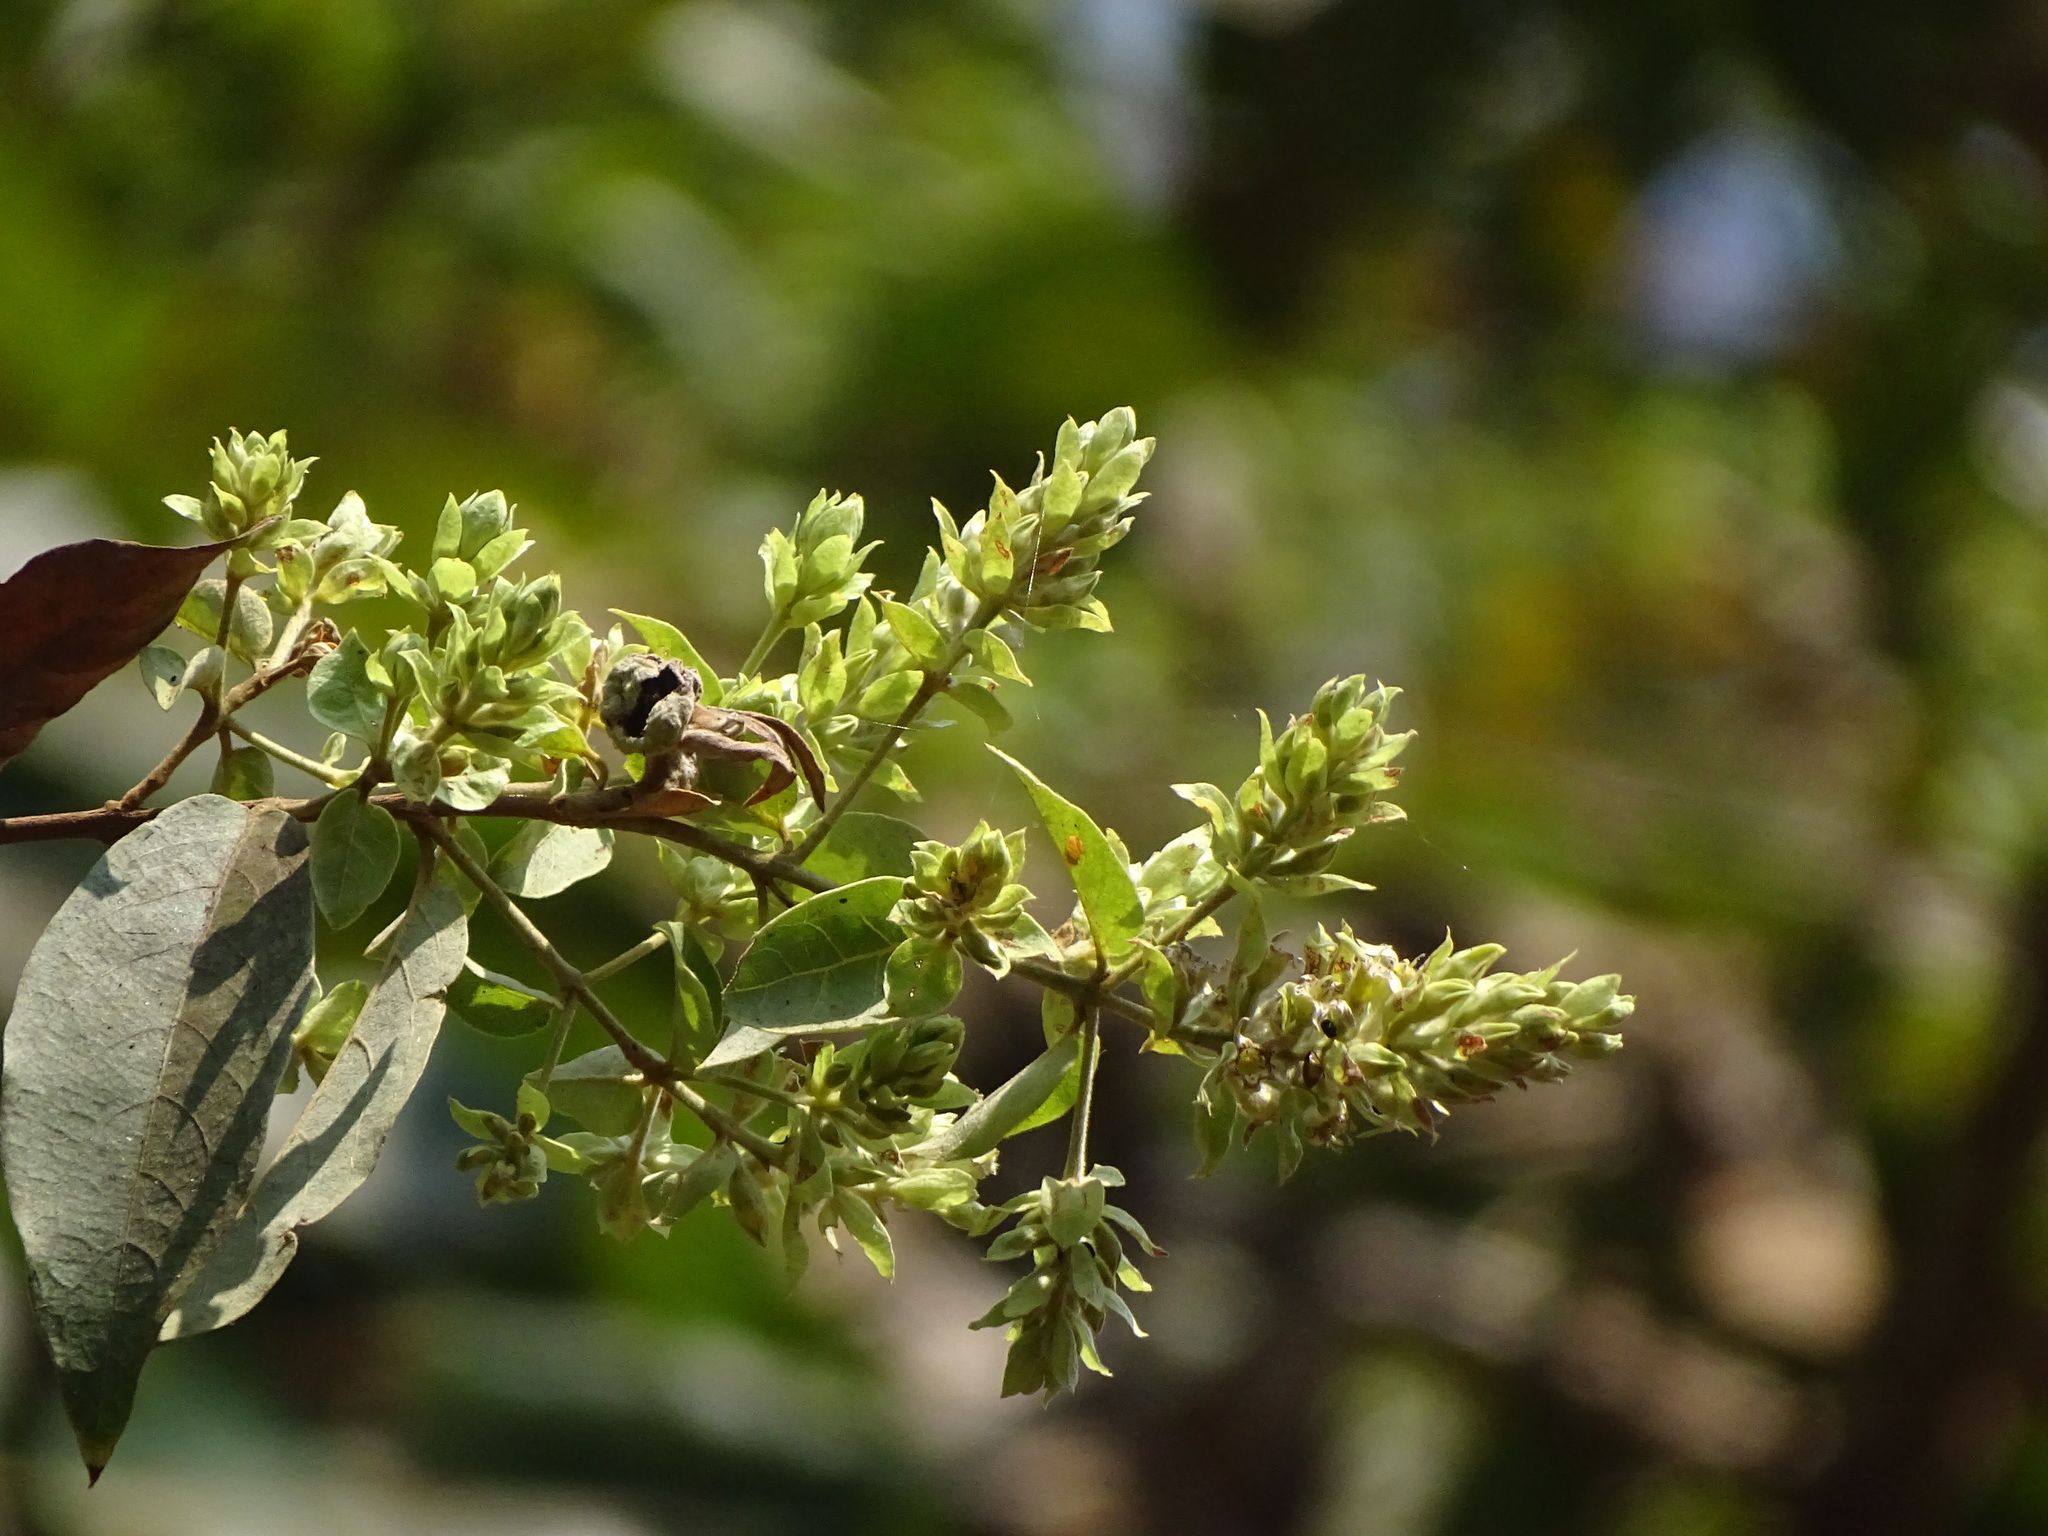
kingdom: Plantae
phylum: Tracheophyta
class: Magnoliopsida
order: Myrtales
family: Combretaceae
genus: Getonia
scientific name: Getonia floribunda
